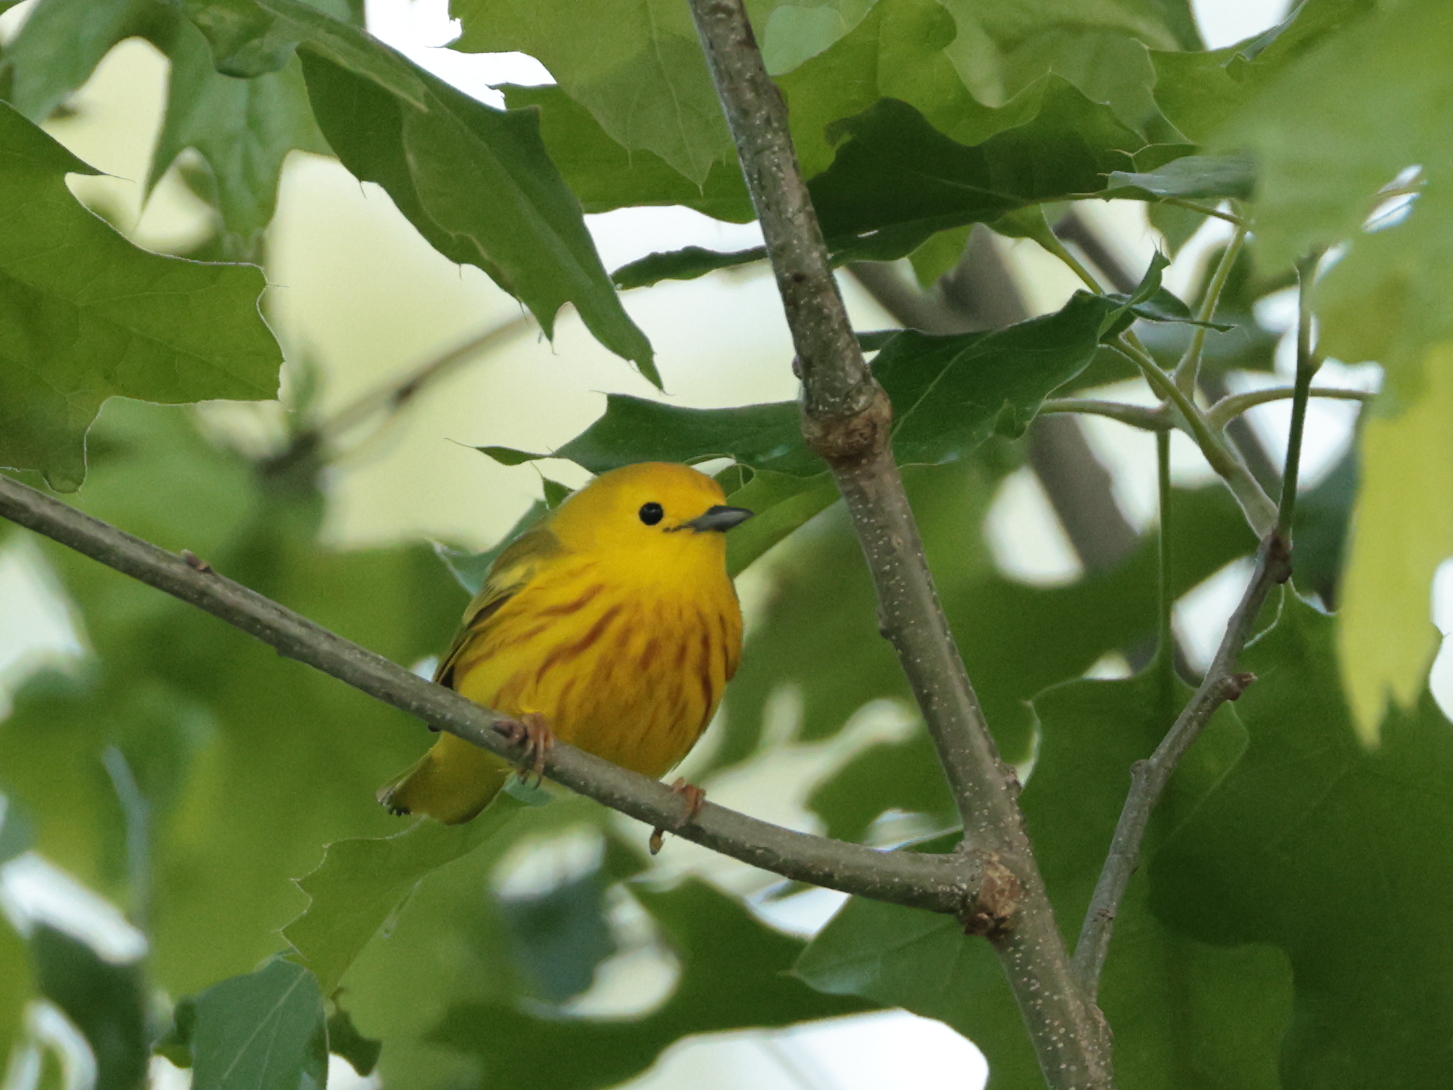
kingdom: Animalia
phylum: Chordata
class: Aves
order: Passeriformes
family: Parulidae
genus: Setophaga
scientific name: Setophaga petechia
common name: Yellow warbler
